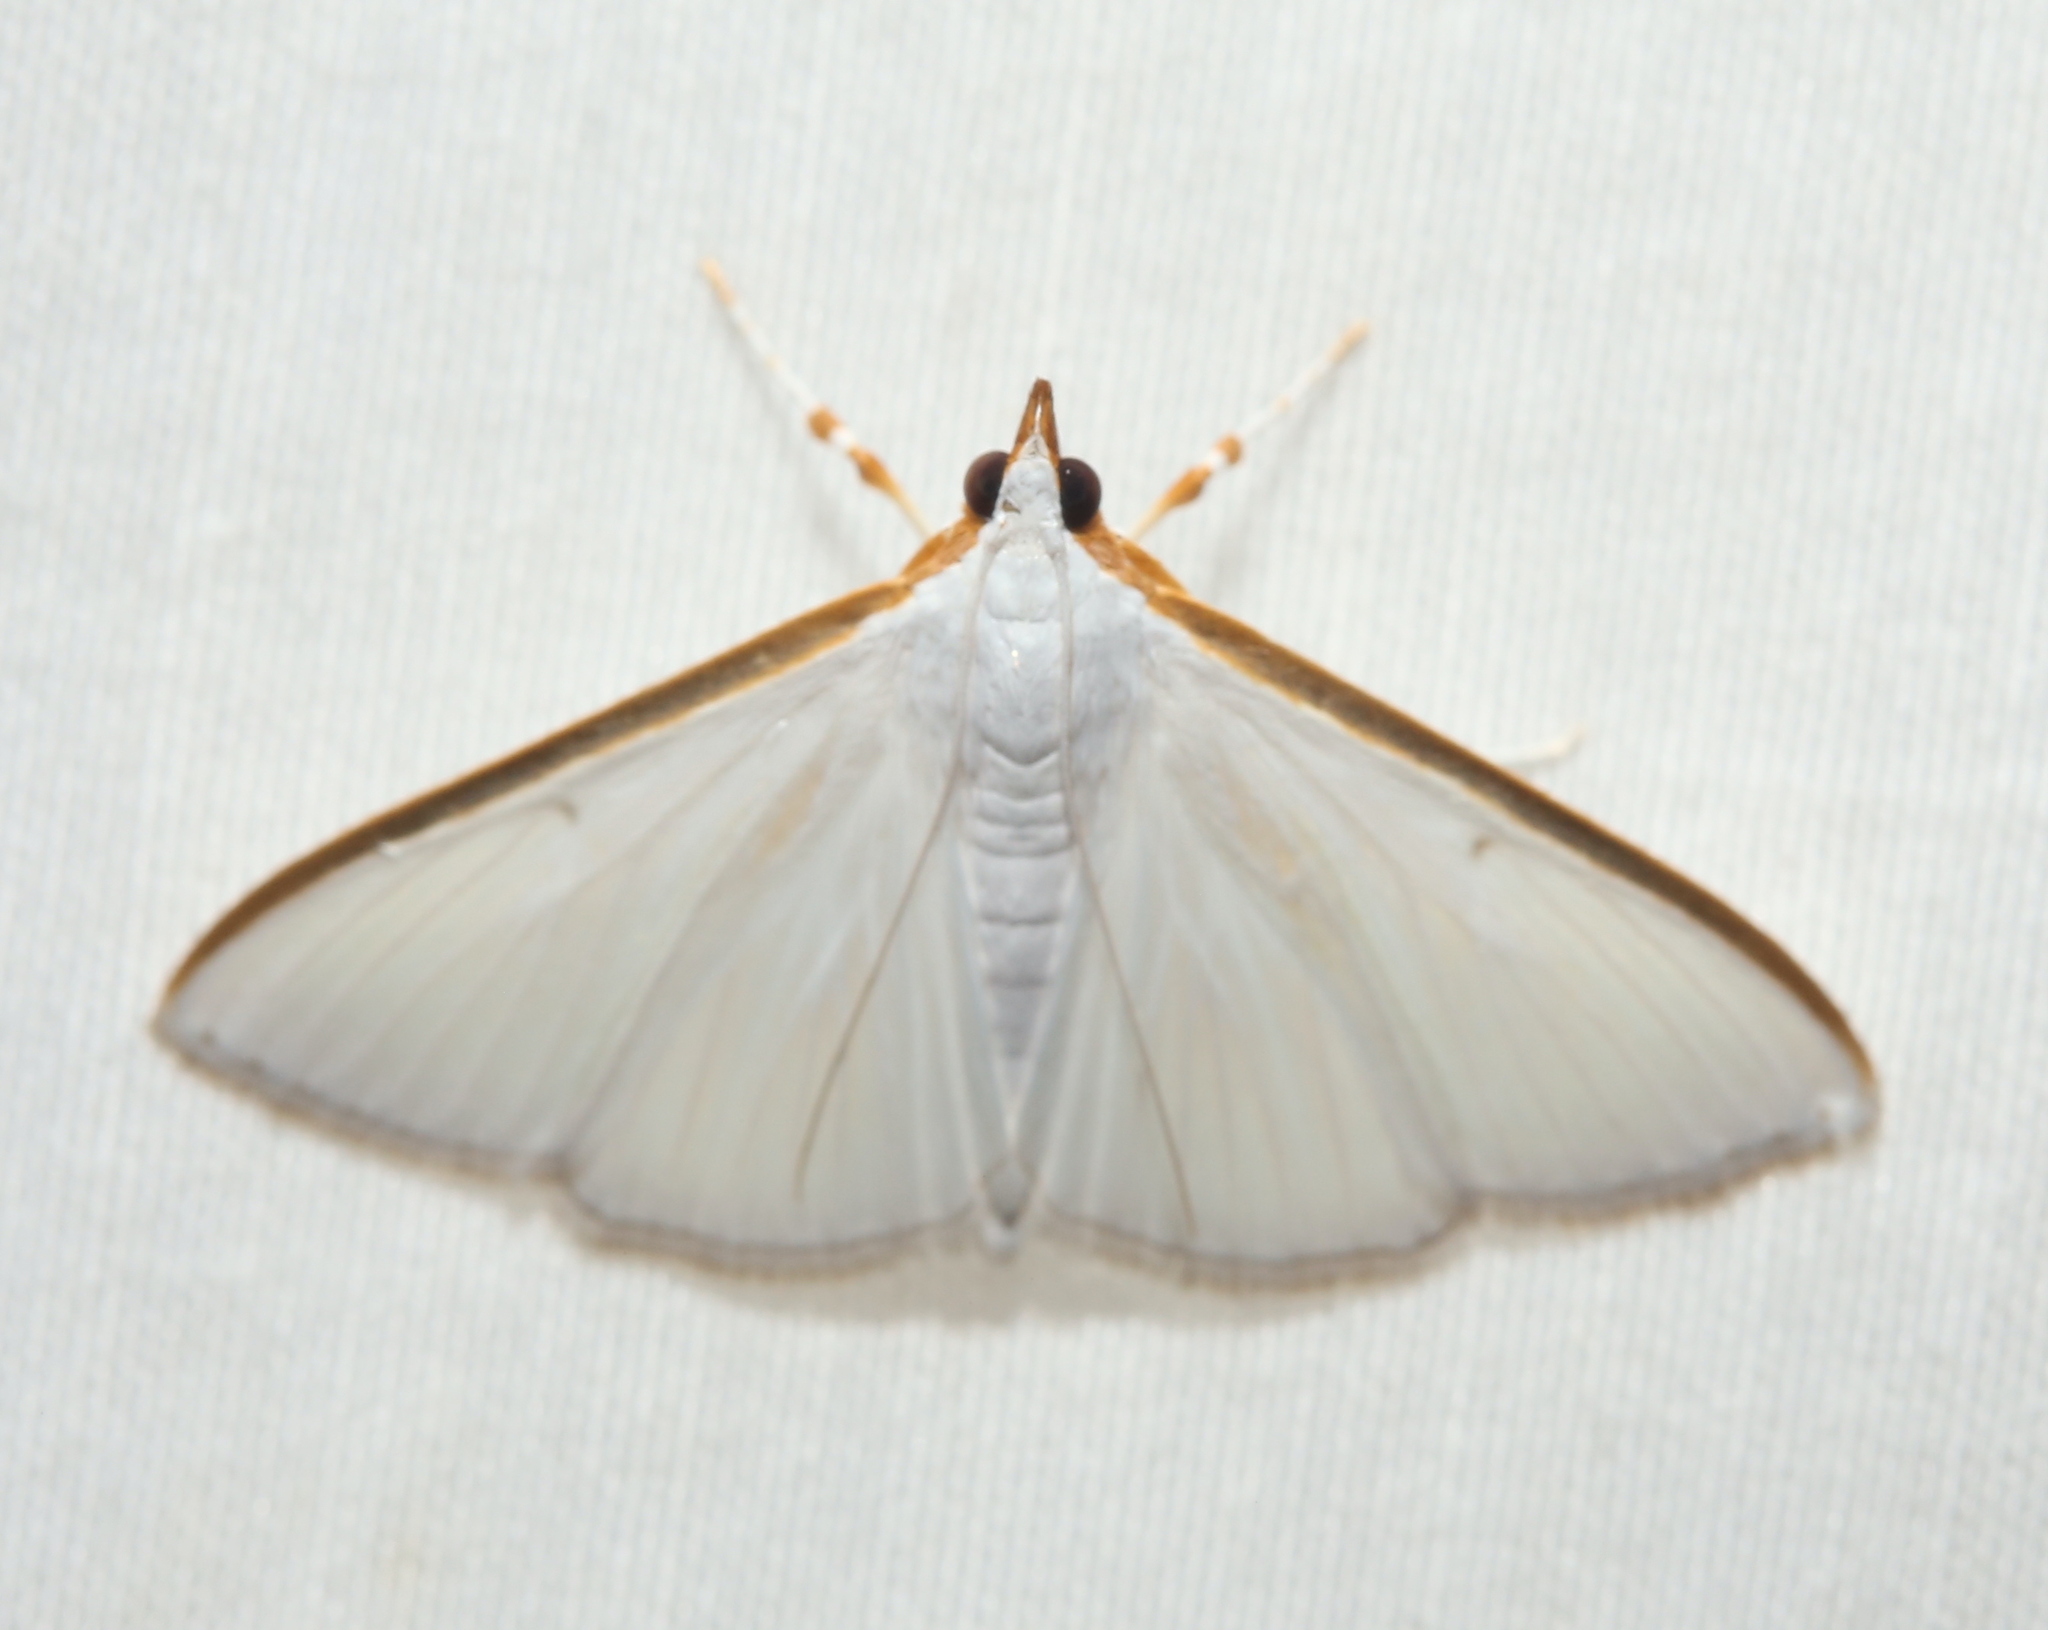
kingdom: Animalia
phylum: Arthropoda
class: Insecta
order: Lepidoptera
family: Crambidae
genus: Diaphania
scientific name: Diaphania costata
